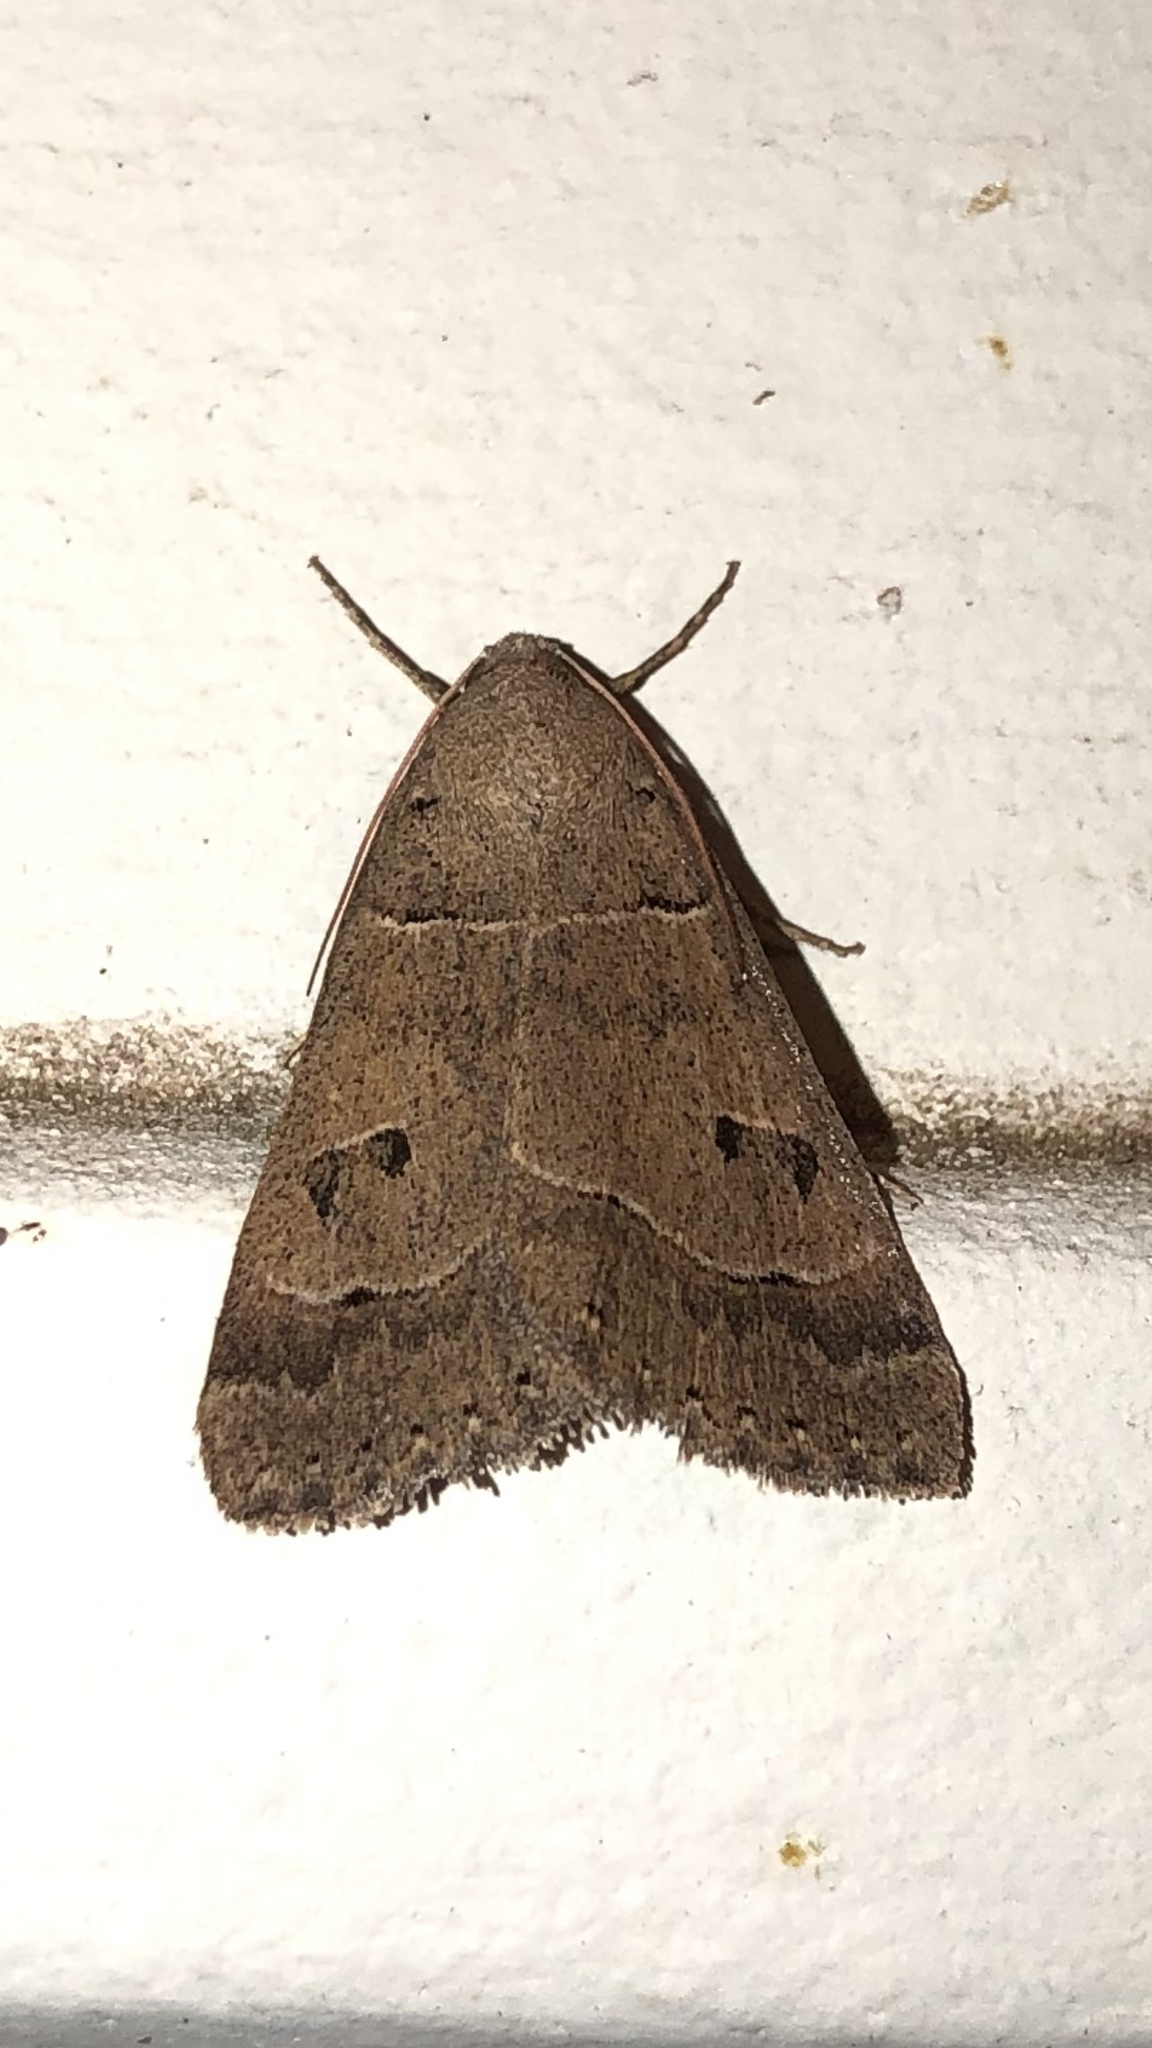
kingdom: Animalia
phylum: Arthropoda
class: Insecta
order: Lepidoptera
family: Erebidae
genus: Phoberia
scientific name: Phoberia atomaris
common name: Common oak moth
